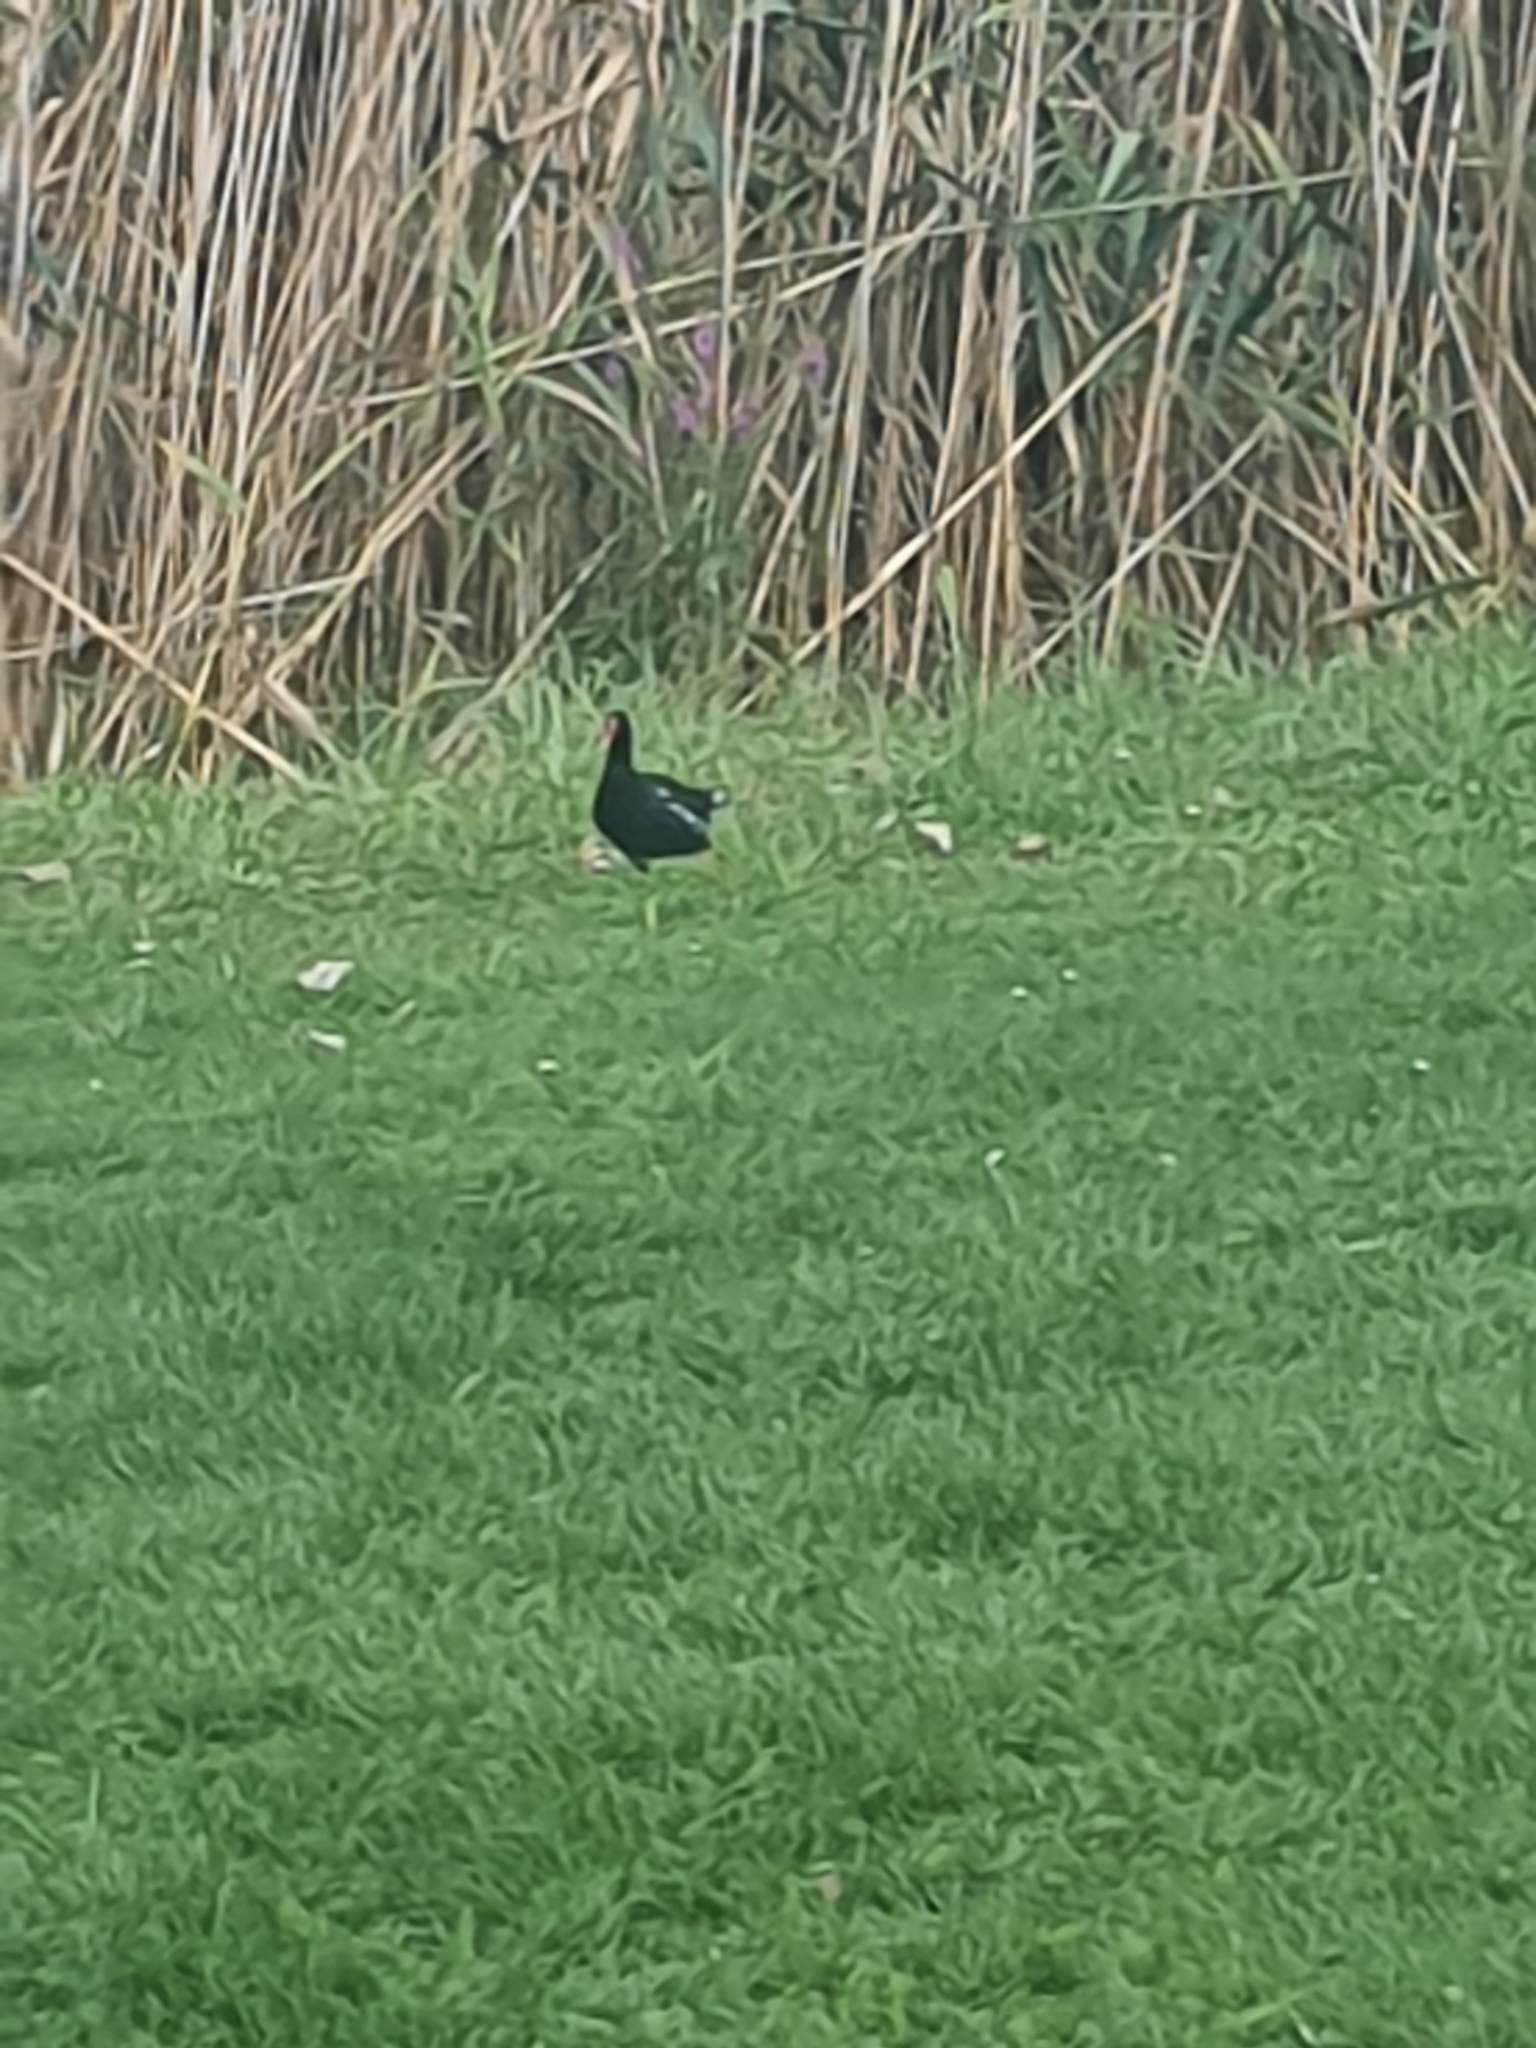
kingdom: Animalia
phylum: Chordata
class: Aves
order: Gruiformes
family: Rallidae
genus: Gallinula
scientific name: Gallinula chloropus
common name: Common moorhen
